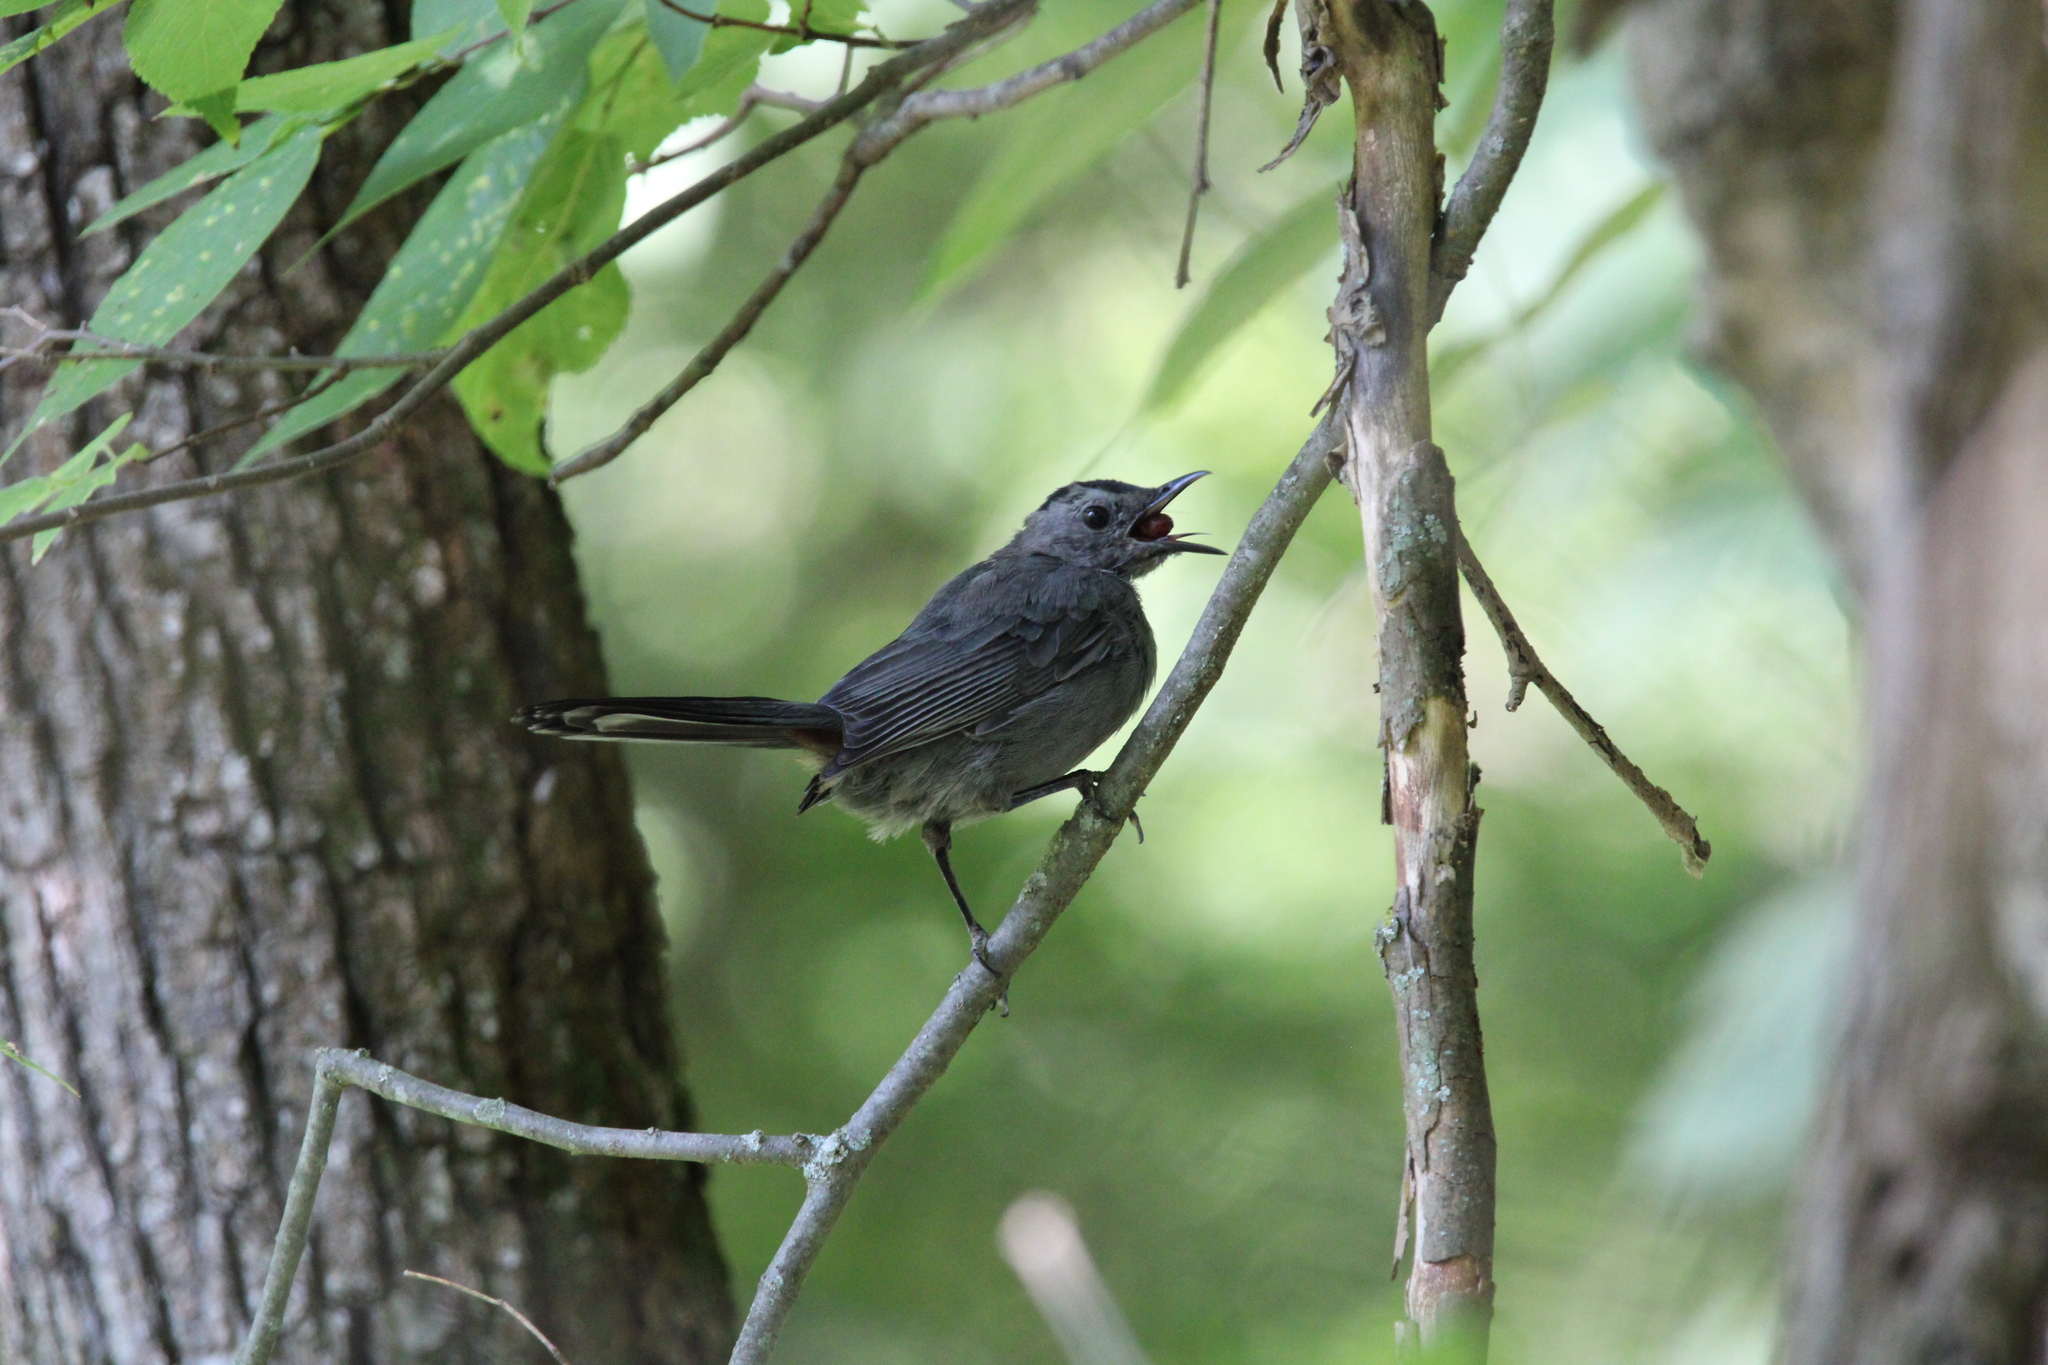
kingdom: Animalia
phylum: Chordata
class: Aves
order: Passeriformes
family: Mimidae
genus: Dumetella
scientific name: Dumetella carolinensis
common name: Gray catbird
